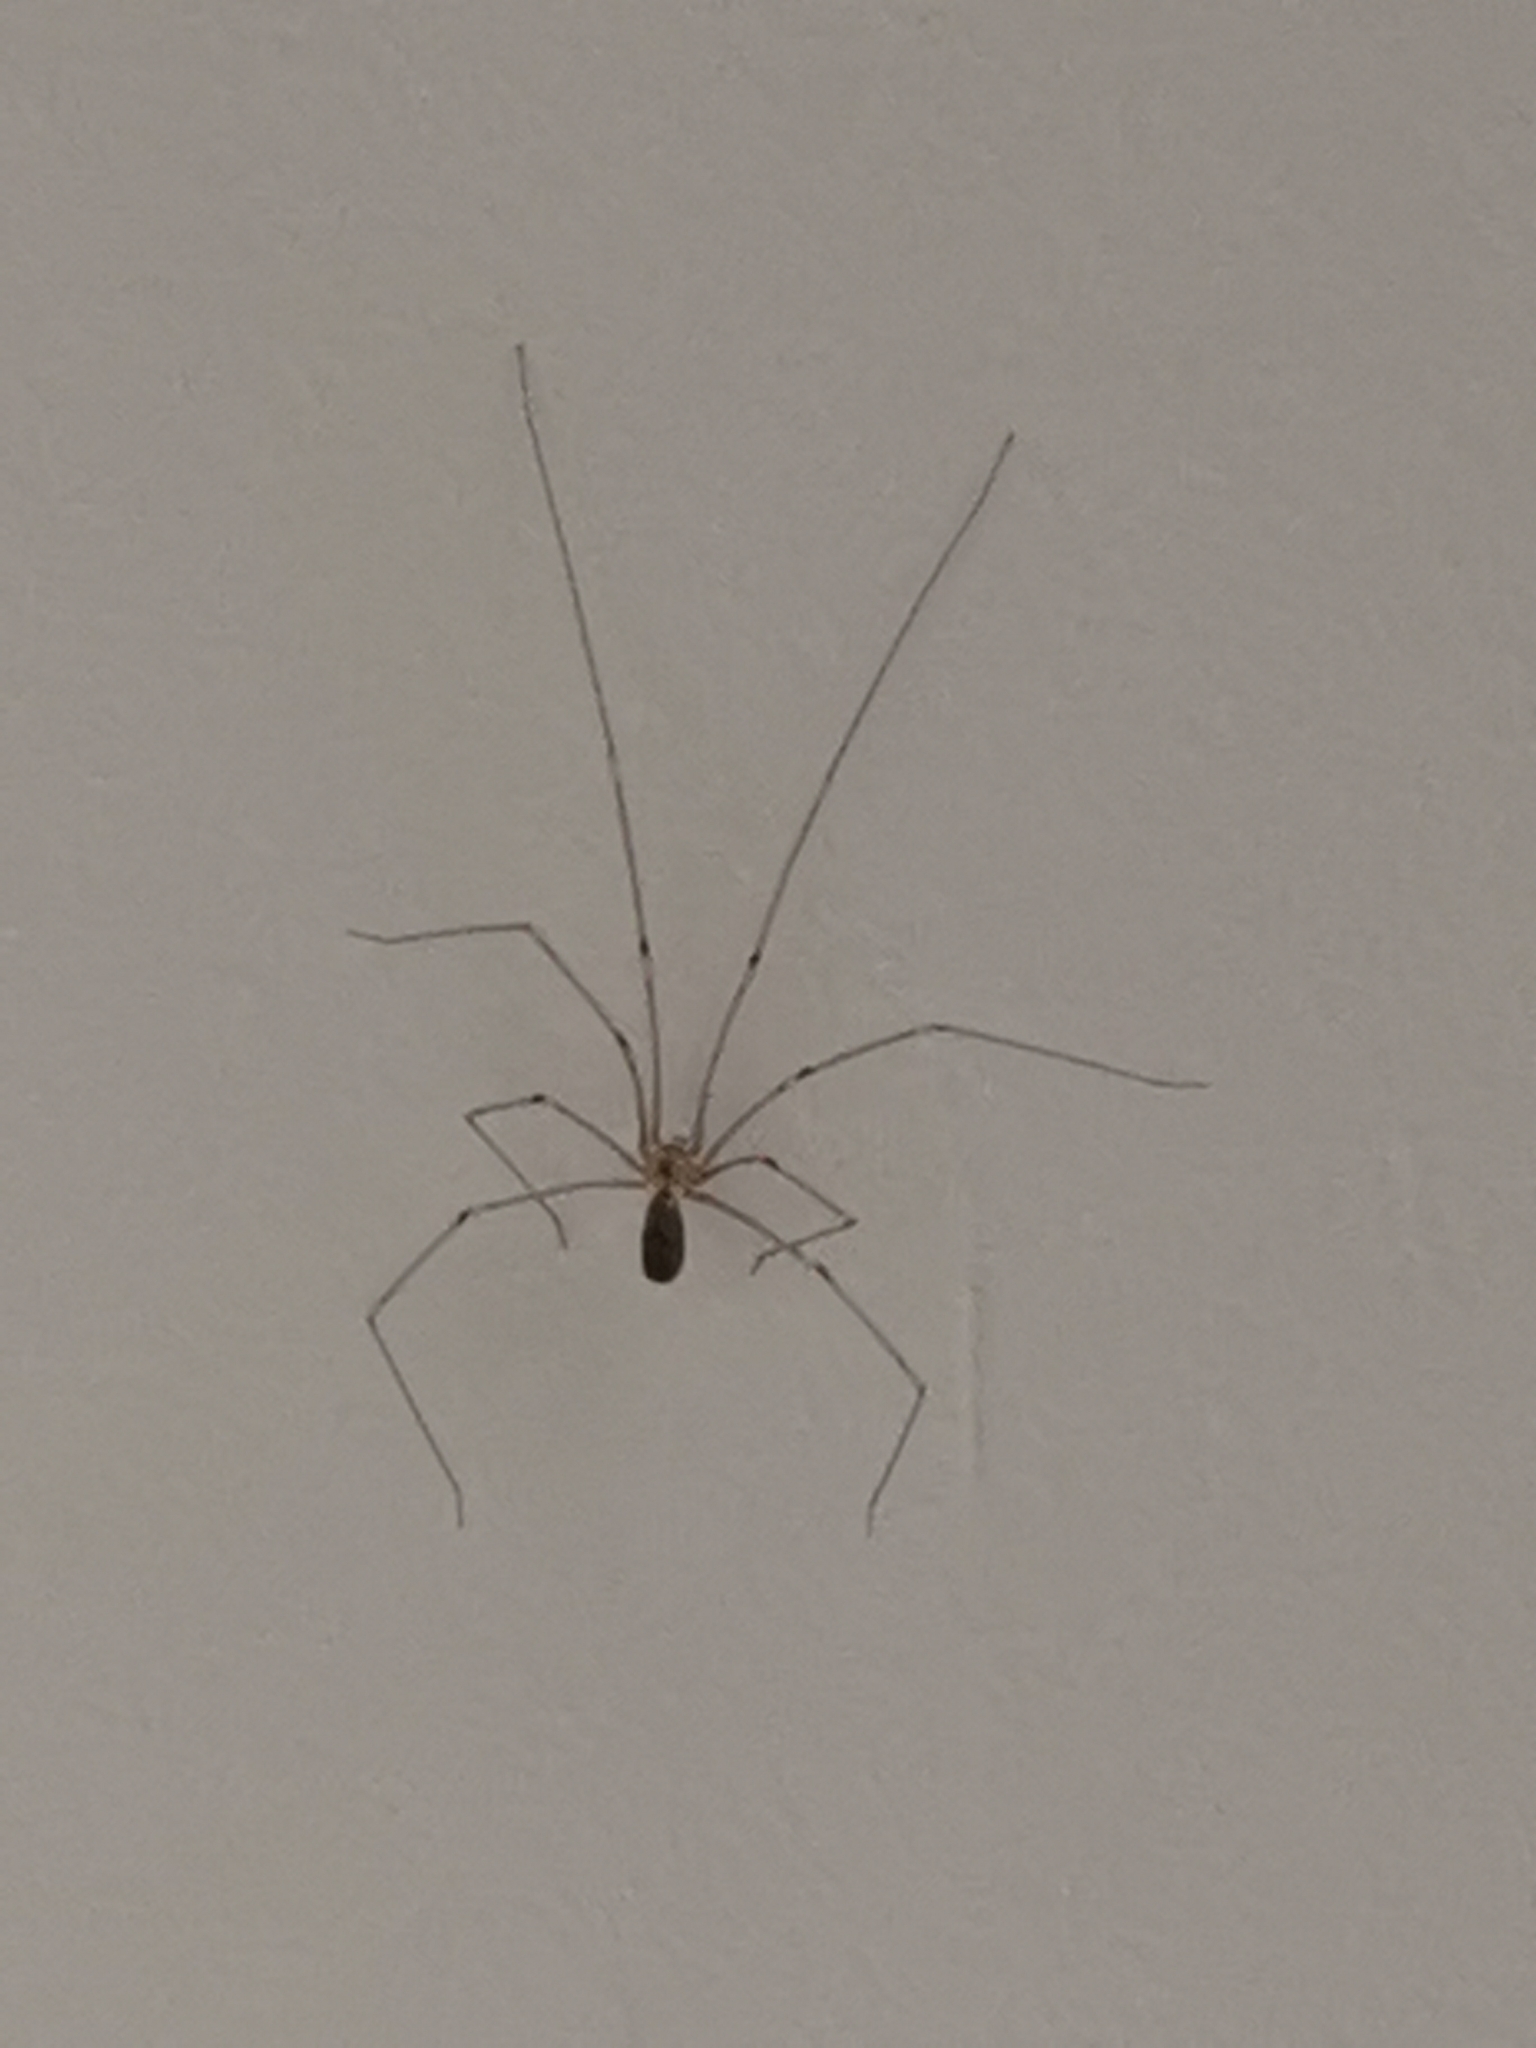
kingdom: Animalia
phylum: Arthropoda
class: Arachnida
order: Araneae
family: Pholcidae
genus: Pholcus
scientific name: Pholcus phalangioides
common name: Longbodied cellar spider
